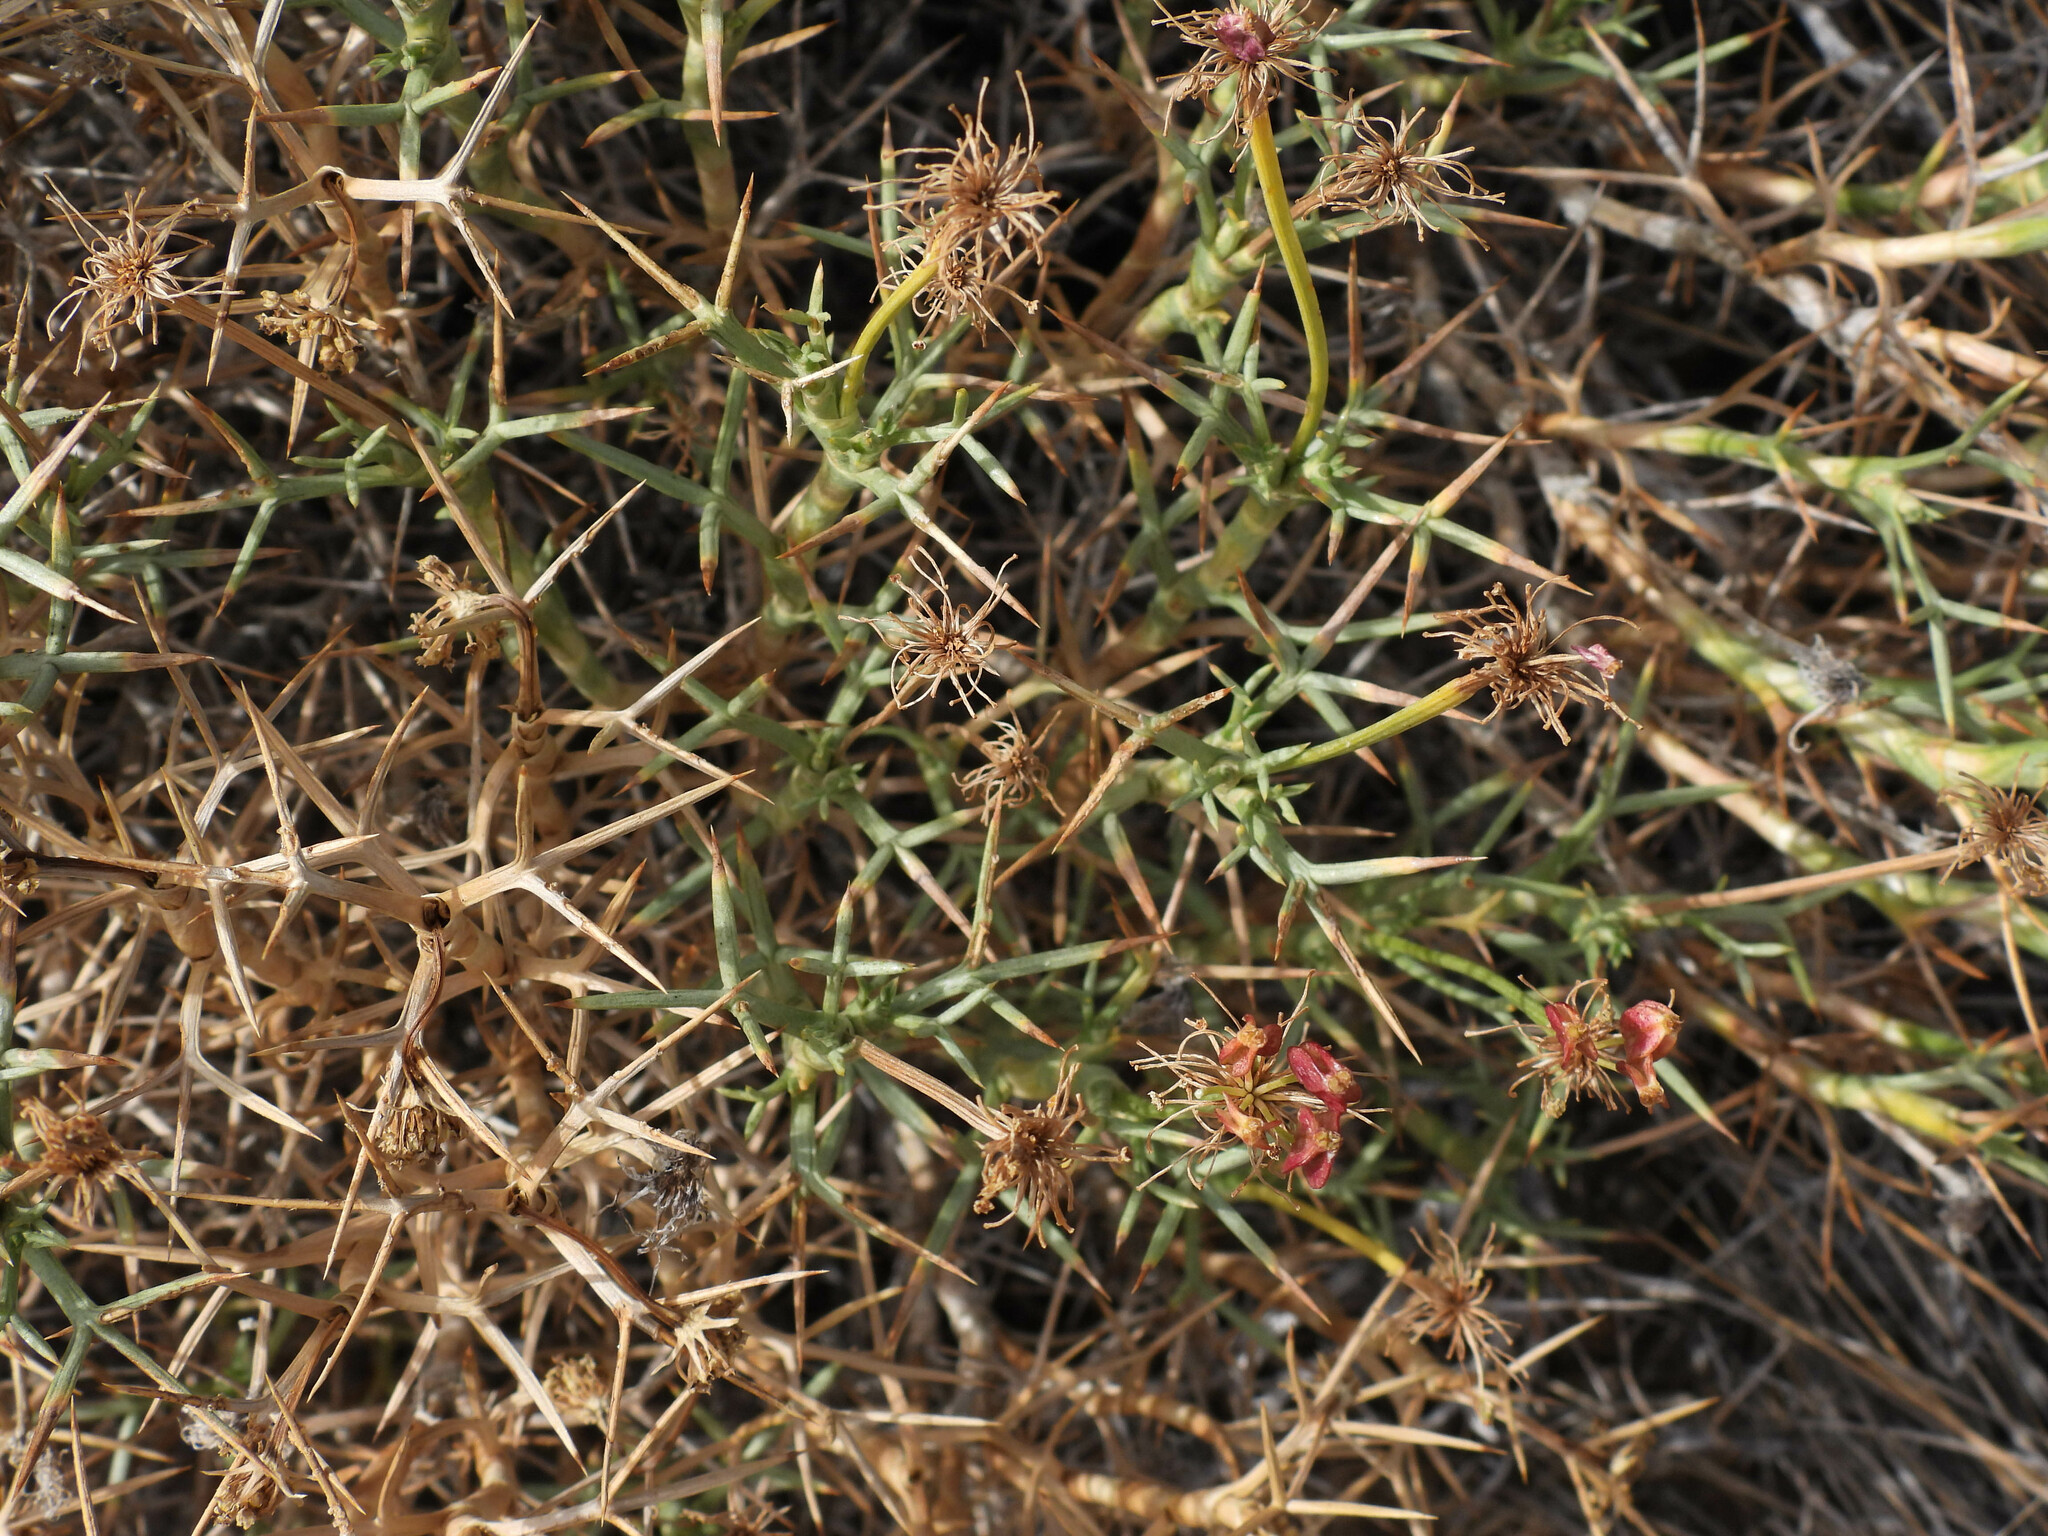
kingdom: Plantae
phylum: Tracheophyta
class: Magnoliopsida
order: Apiales
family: Apiaceae
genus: Azorella
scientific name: Azorella prolifera
